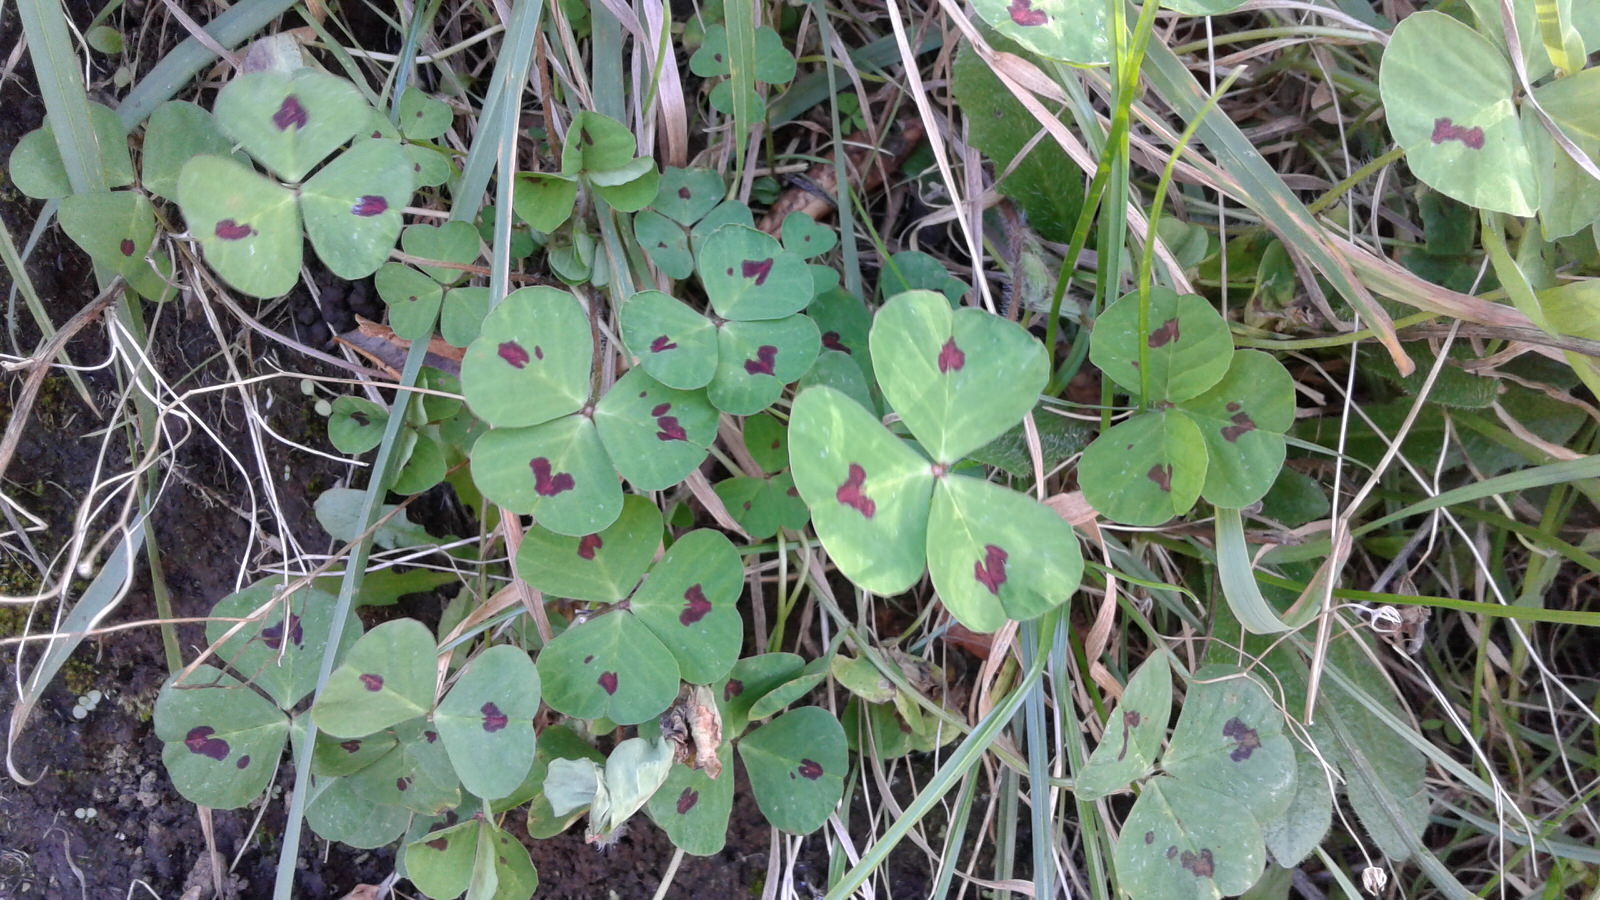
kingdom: Plantae
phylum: Tracheophyta
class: Magnoliopsida
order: Fabales
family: Fabaceae
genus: Medicago
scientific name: Medicago arabica
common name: Spotted medick
